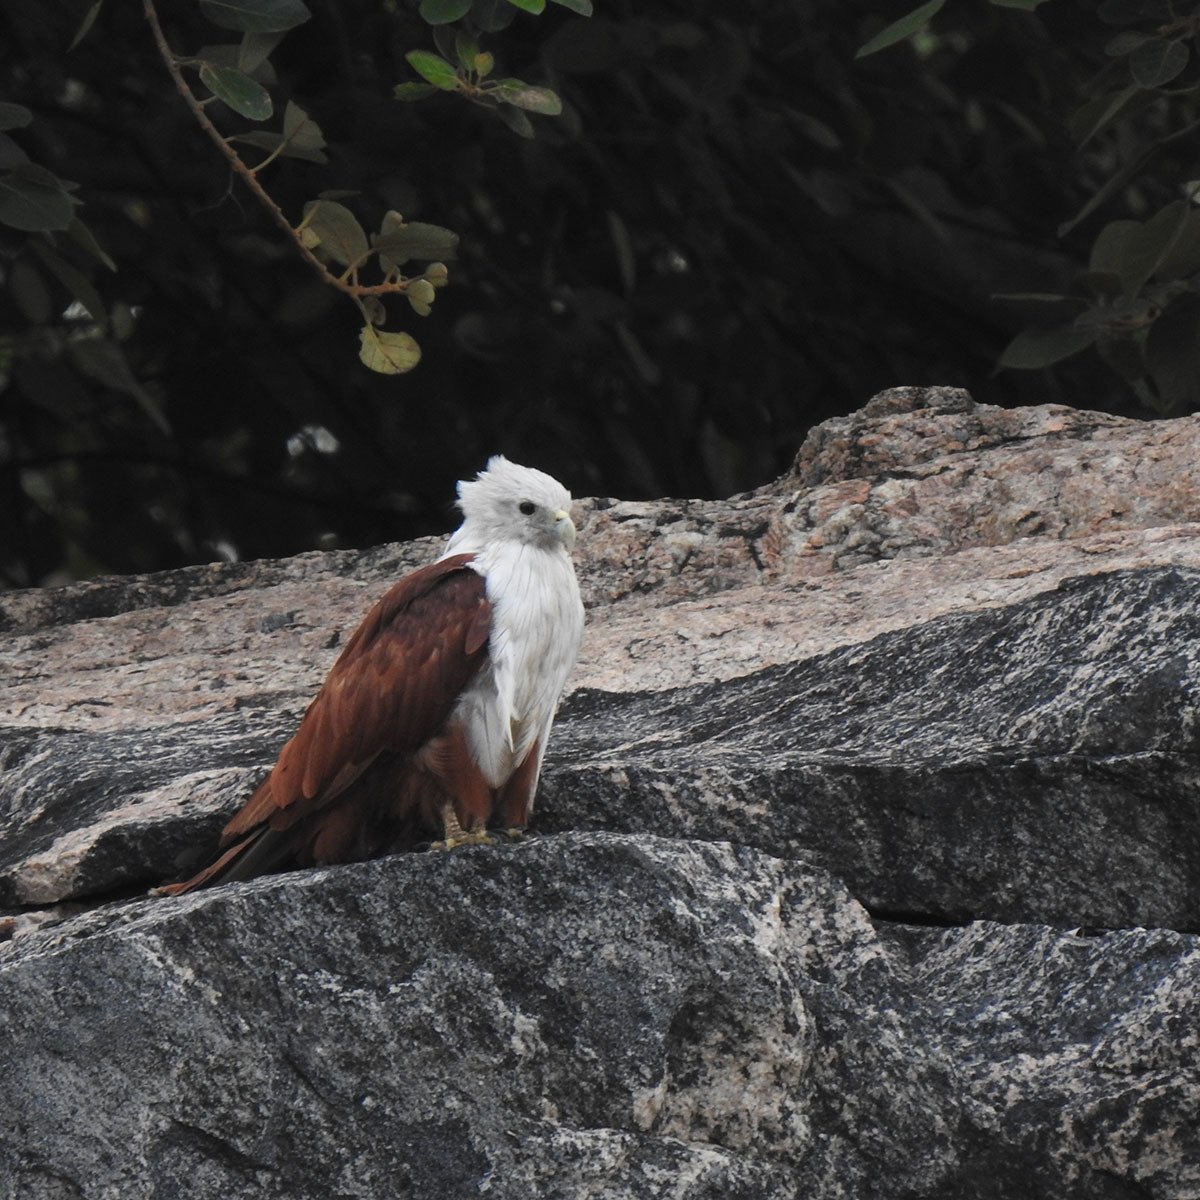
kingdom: Animalia
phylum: Chordata
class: Aves
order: Accipitriformes
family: Accipitridae
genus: Haliastur
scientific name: Haliastur indus
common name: Brahminy kite
